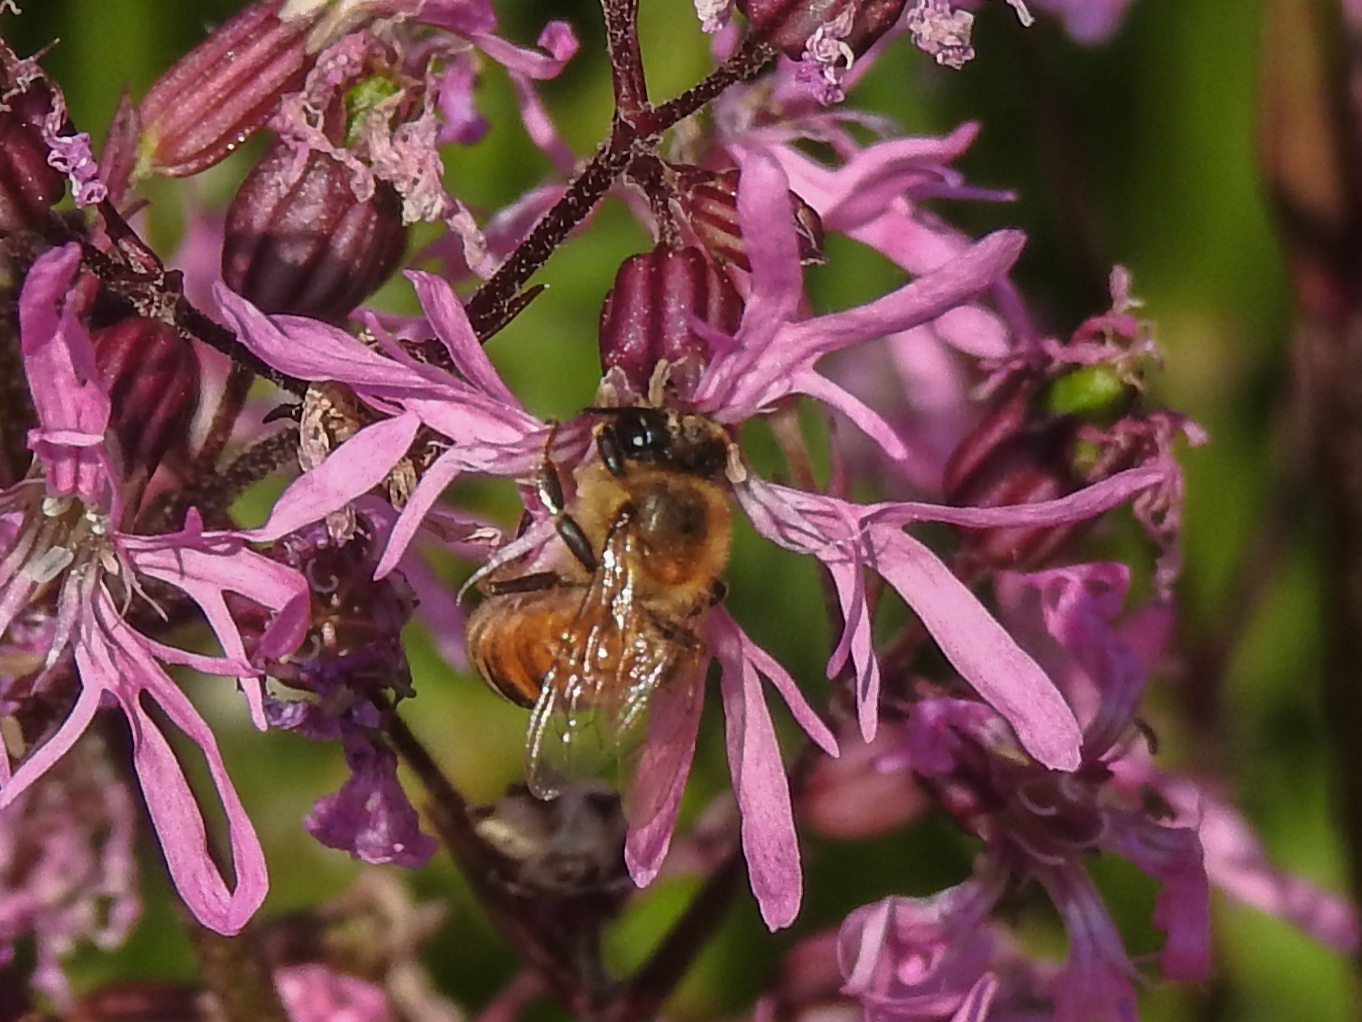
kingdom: Animalia
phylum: Arthropoda
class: Insecta
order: Hymenoptera
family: Apidae
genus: Apis
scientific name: Apis mellifera
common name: Honey bee
